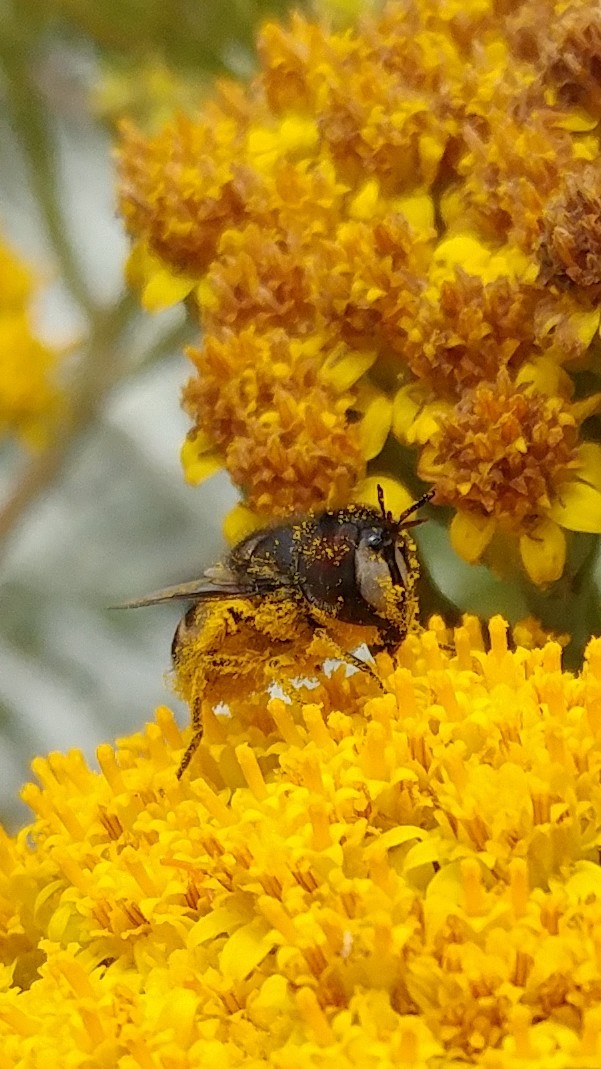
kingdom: Animalia
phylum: Arthropoda
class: Insecta
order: Diptera
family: Syrphidae
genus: Copestylum
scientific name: Copestylum avidum
